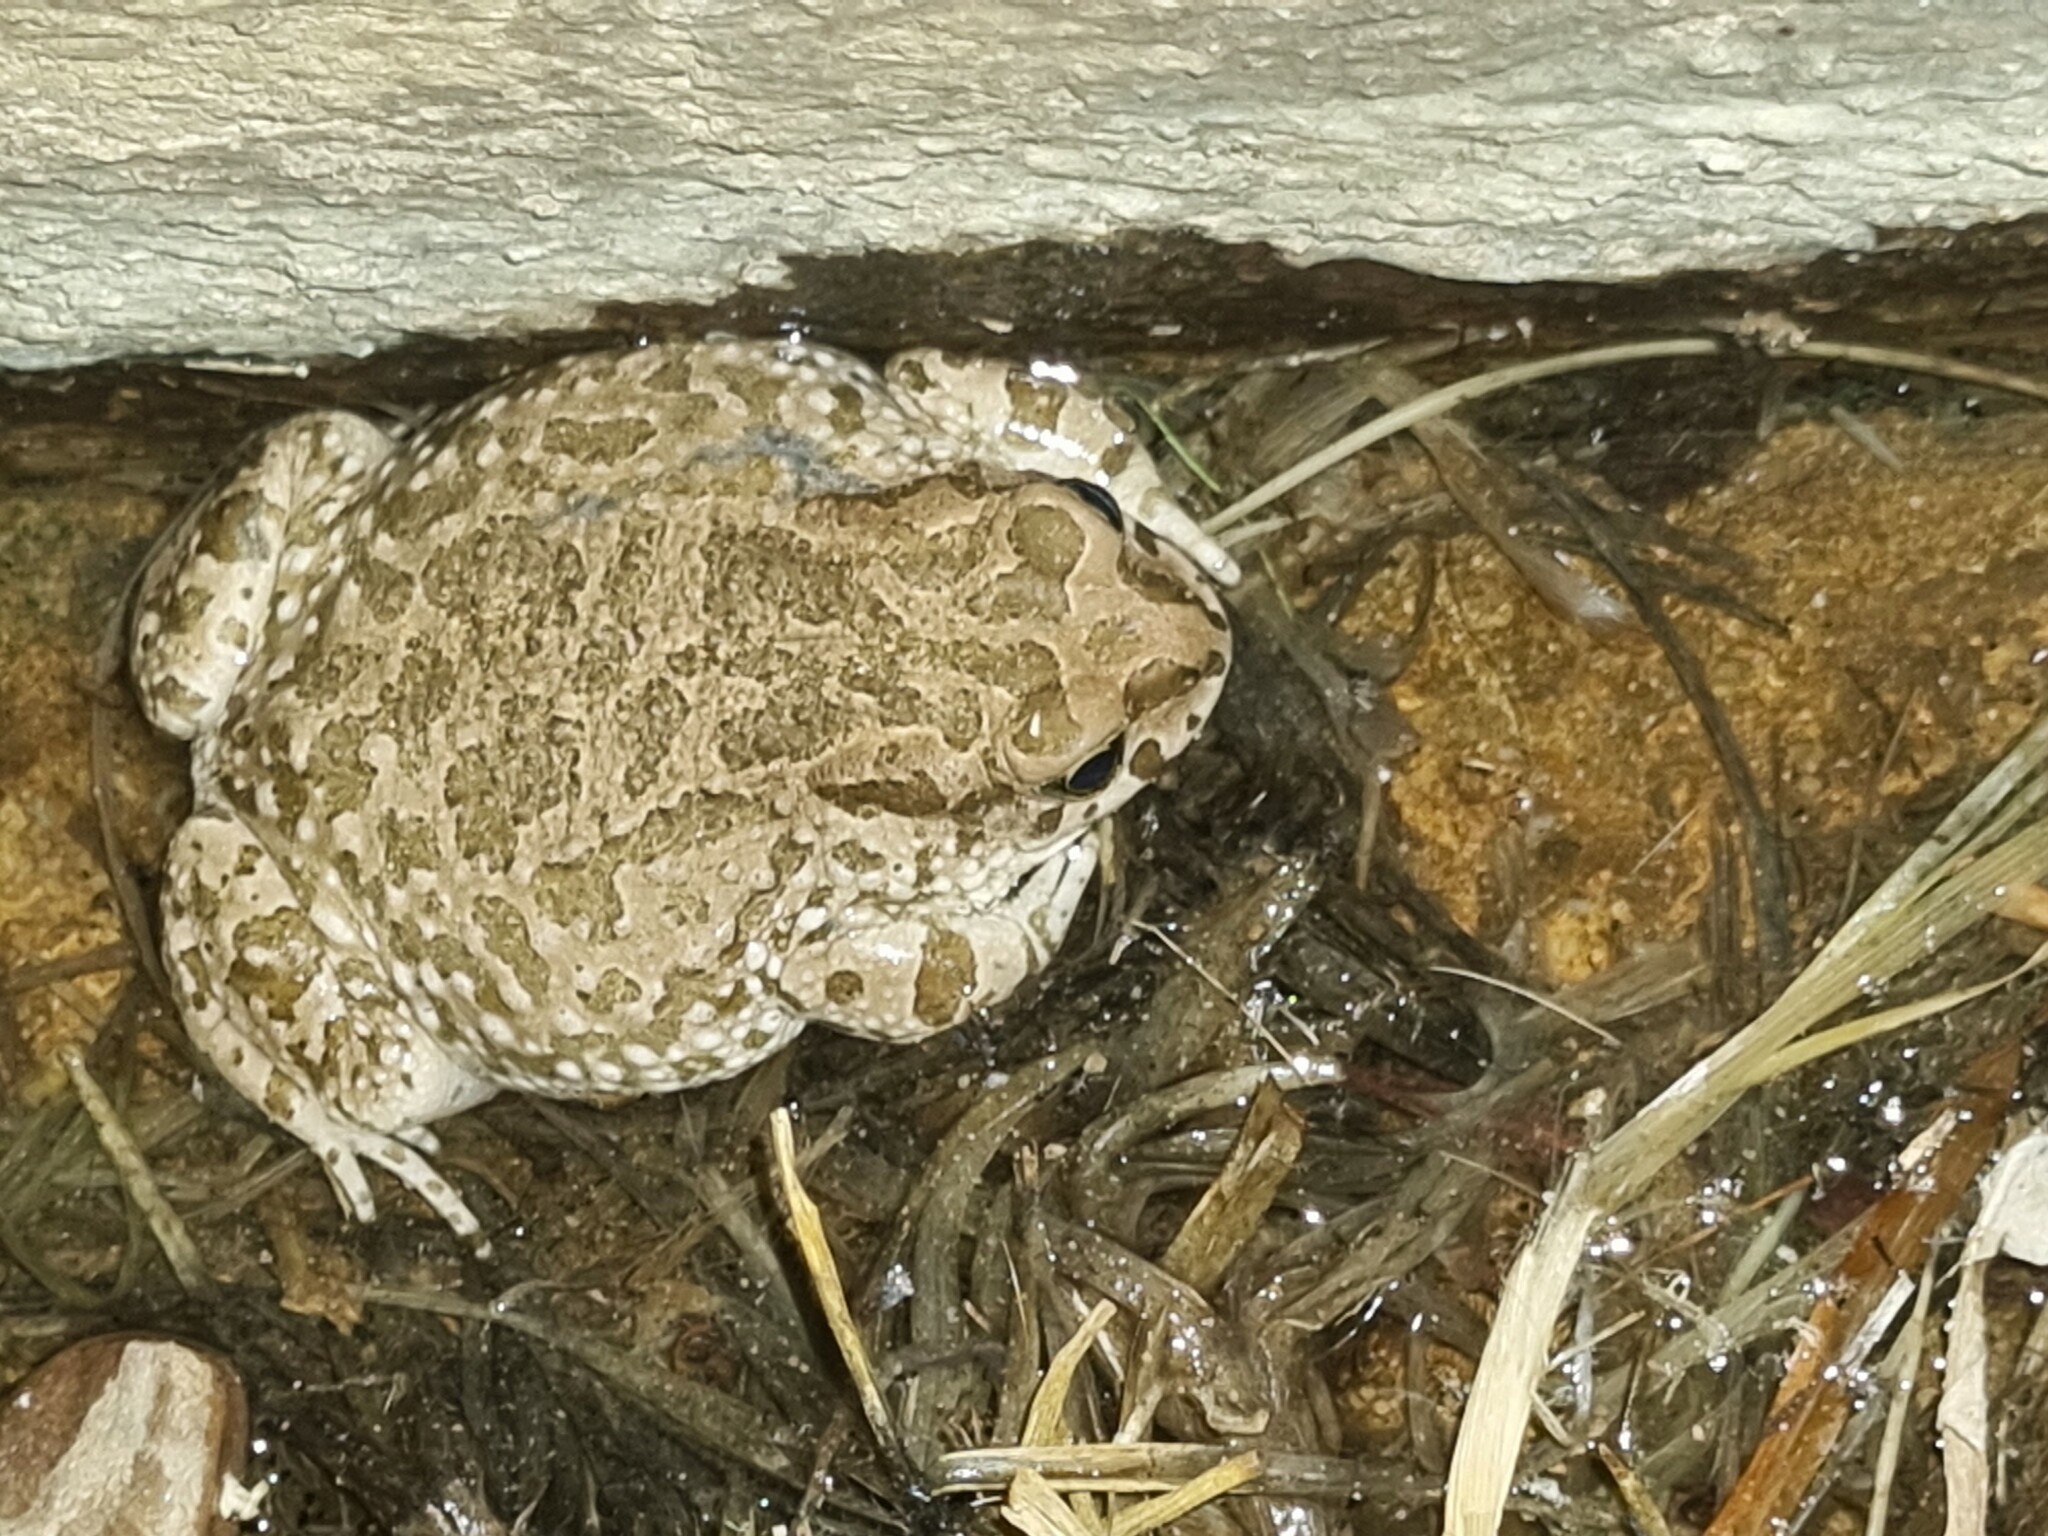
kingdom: Animalia
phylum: Chordata
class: Amphibia
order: Anura
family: Bufonidae
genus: Vandijkophrynus
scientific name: Vandijkophrynus gariepensis
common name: Gariep toad
